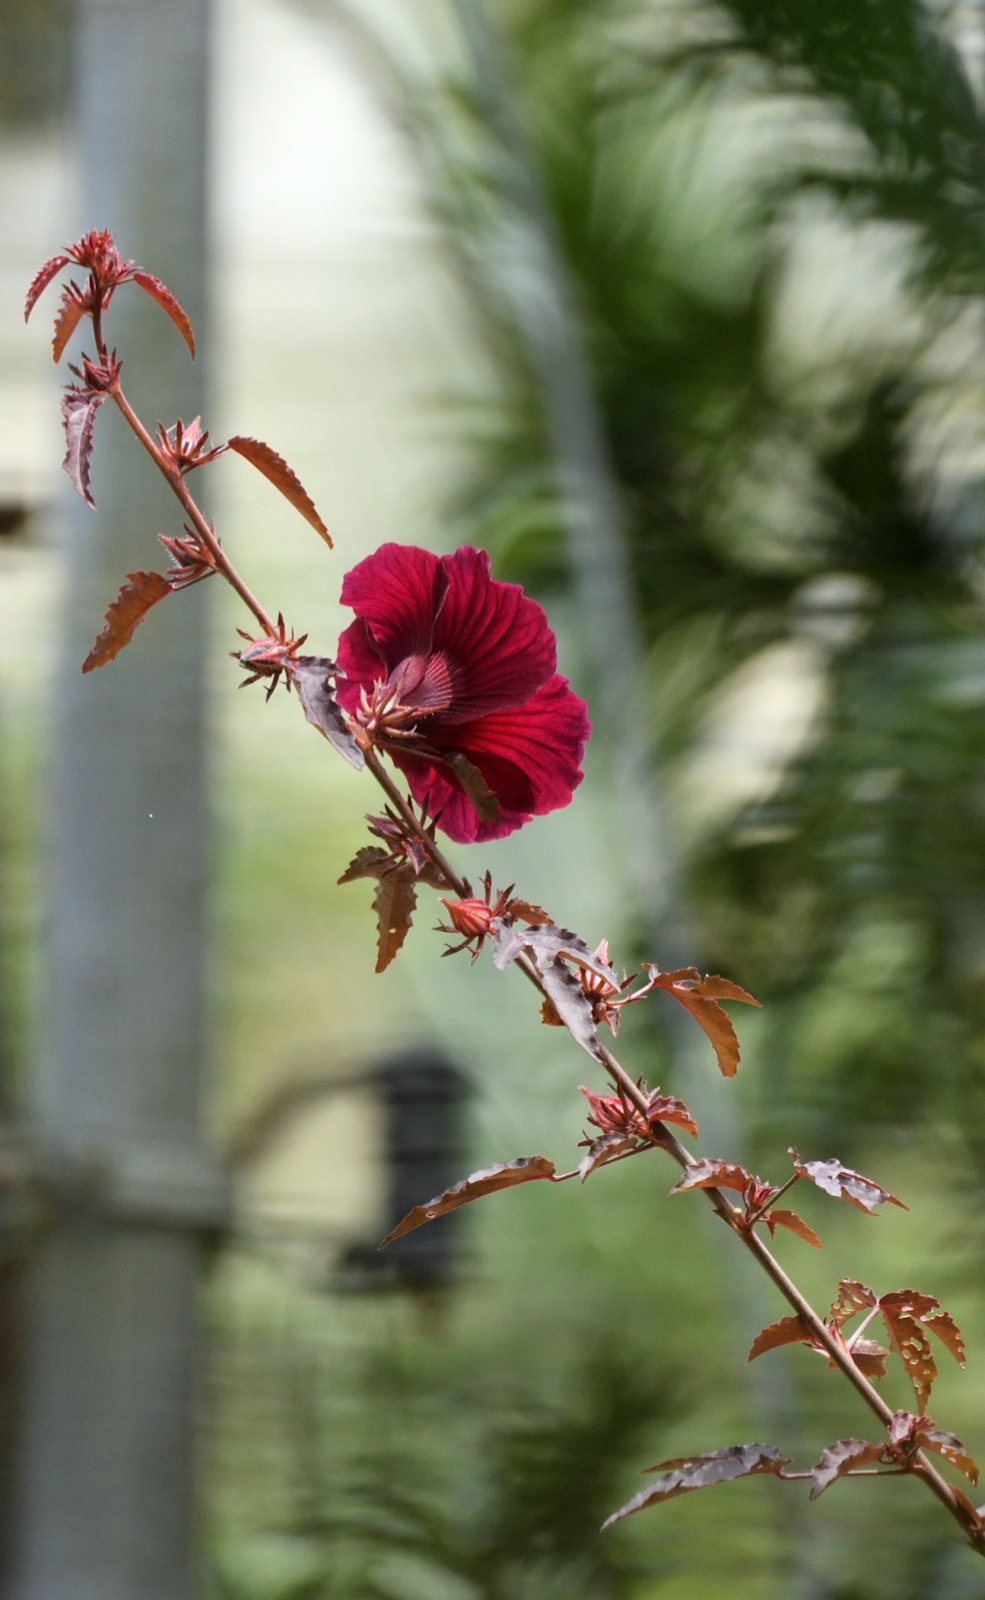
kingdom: Plantae
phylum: Tracheophyta
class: Magnoliopsida
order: Malvales
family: Malvaceae
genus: Hibiscus
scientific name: Hibiscus acetosella
